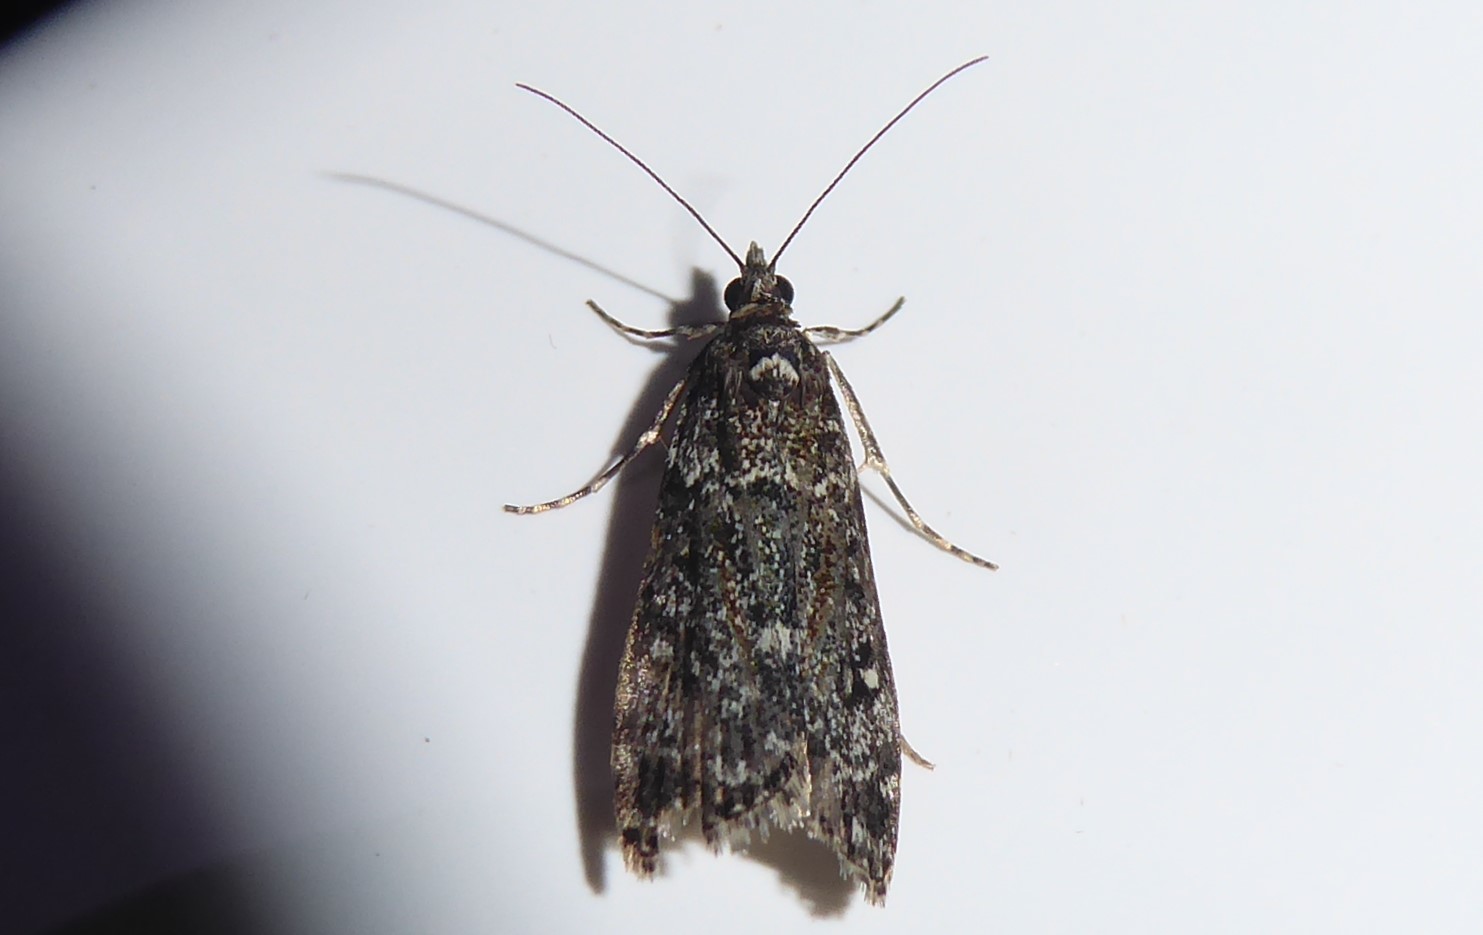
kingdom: Animalia
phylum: Arthropoda
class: Insecta
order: Lepidoptera
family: Crambidae
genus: Eudonia
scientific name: Eudonia philerga
